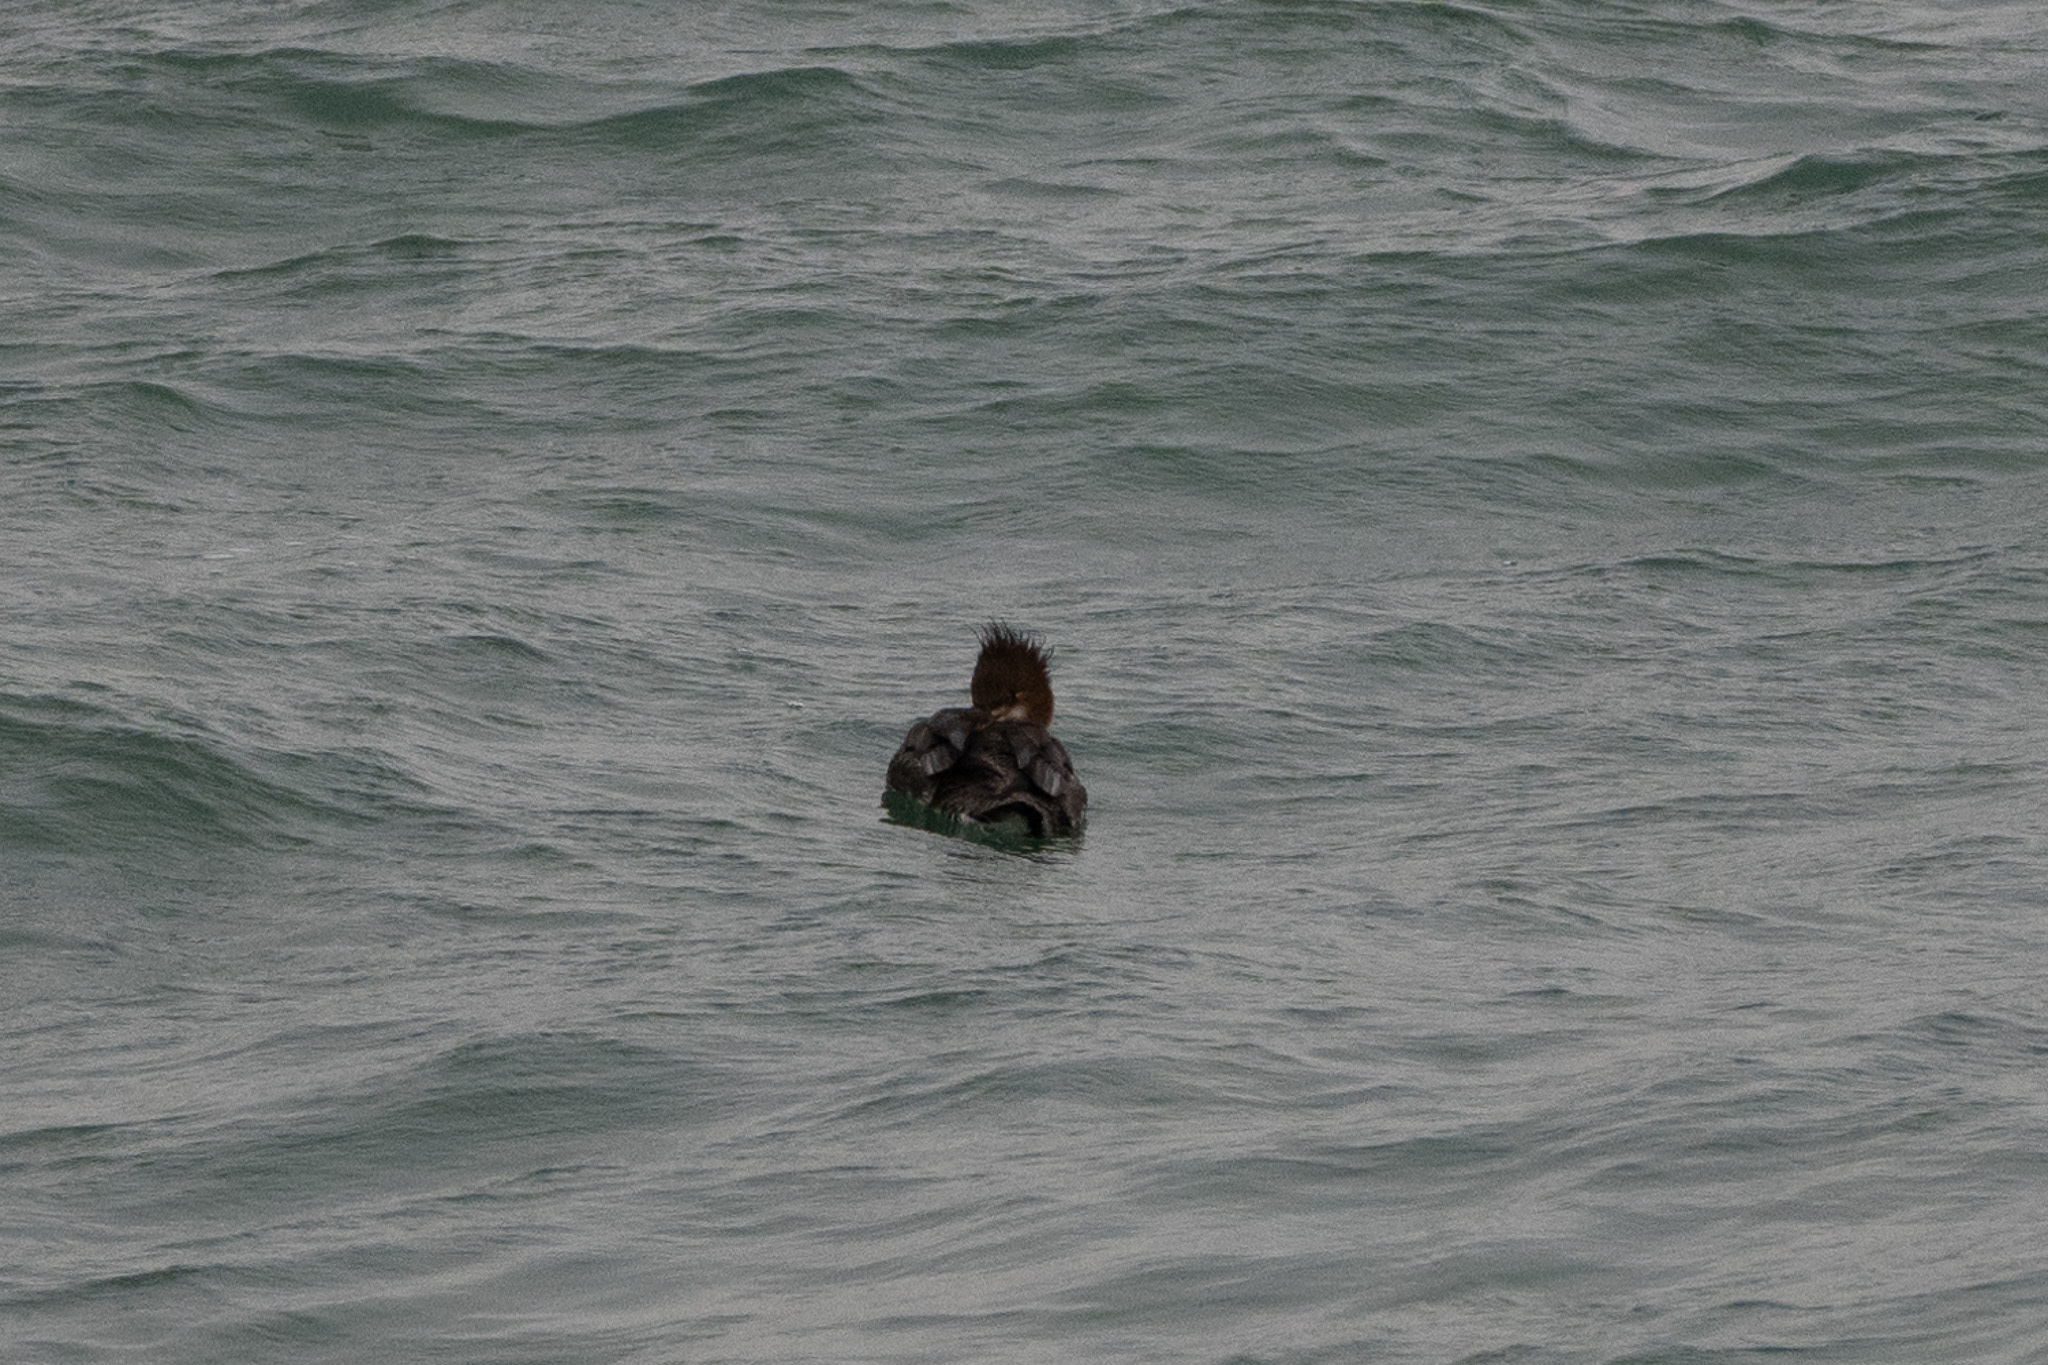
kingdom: Animalia
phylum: Chordata
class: Aves
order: Anseriformes
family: Anatidae
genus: Mergus
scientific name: Mergus serrator
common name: Red-breasted merganser
